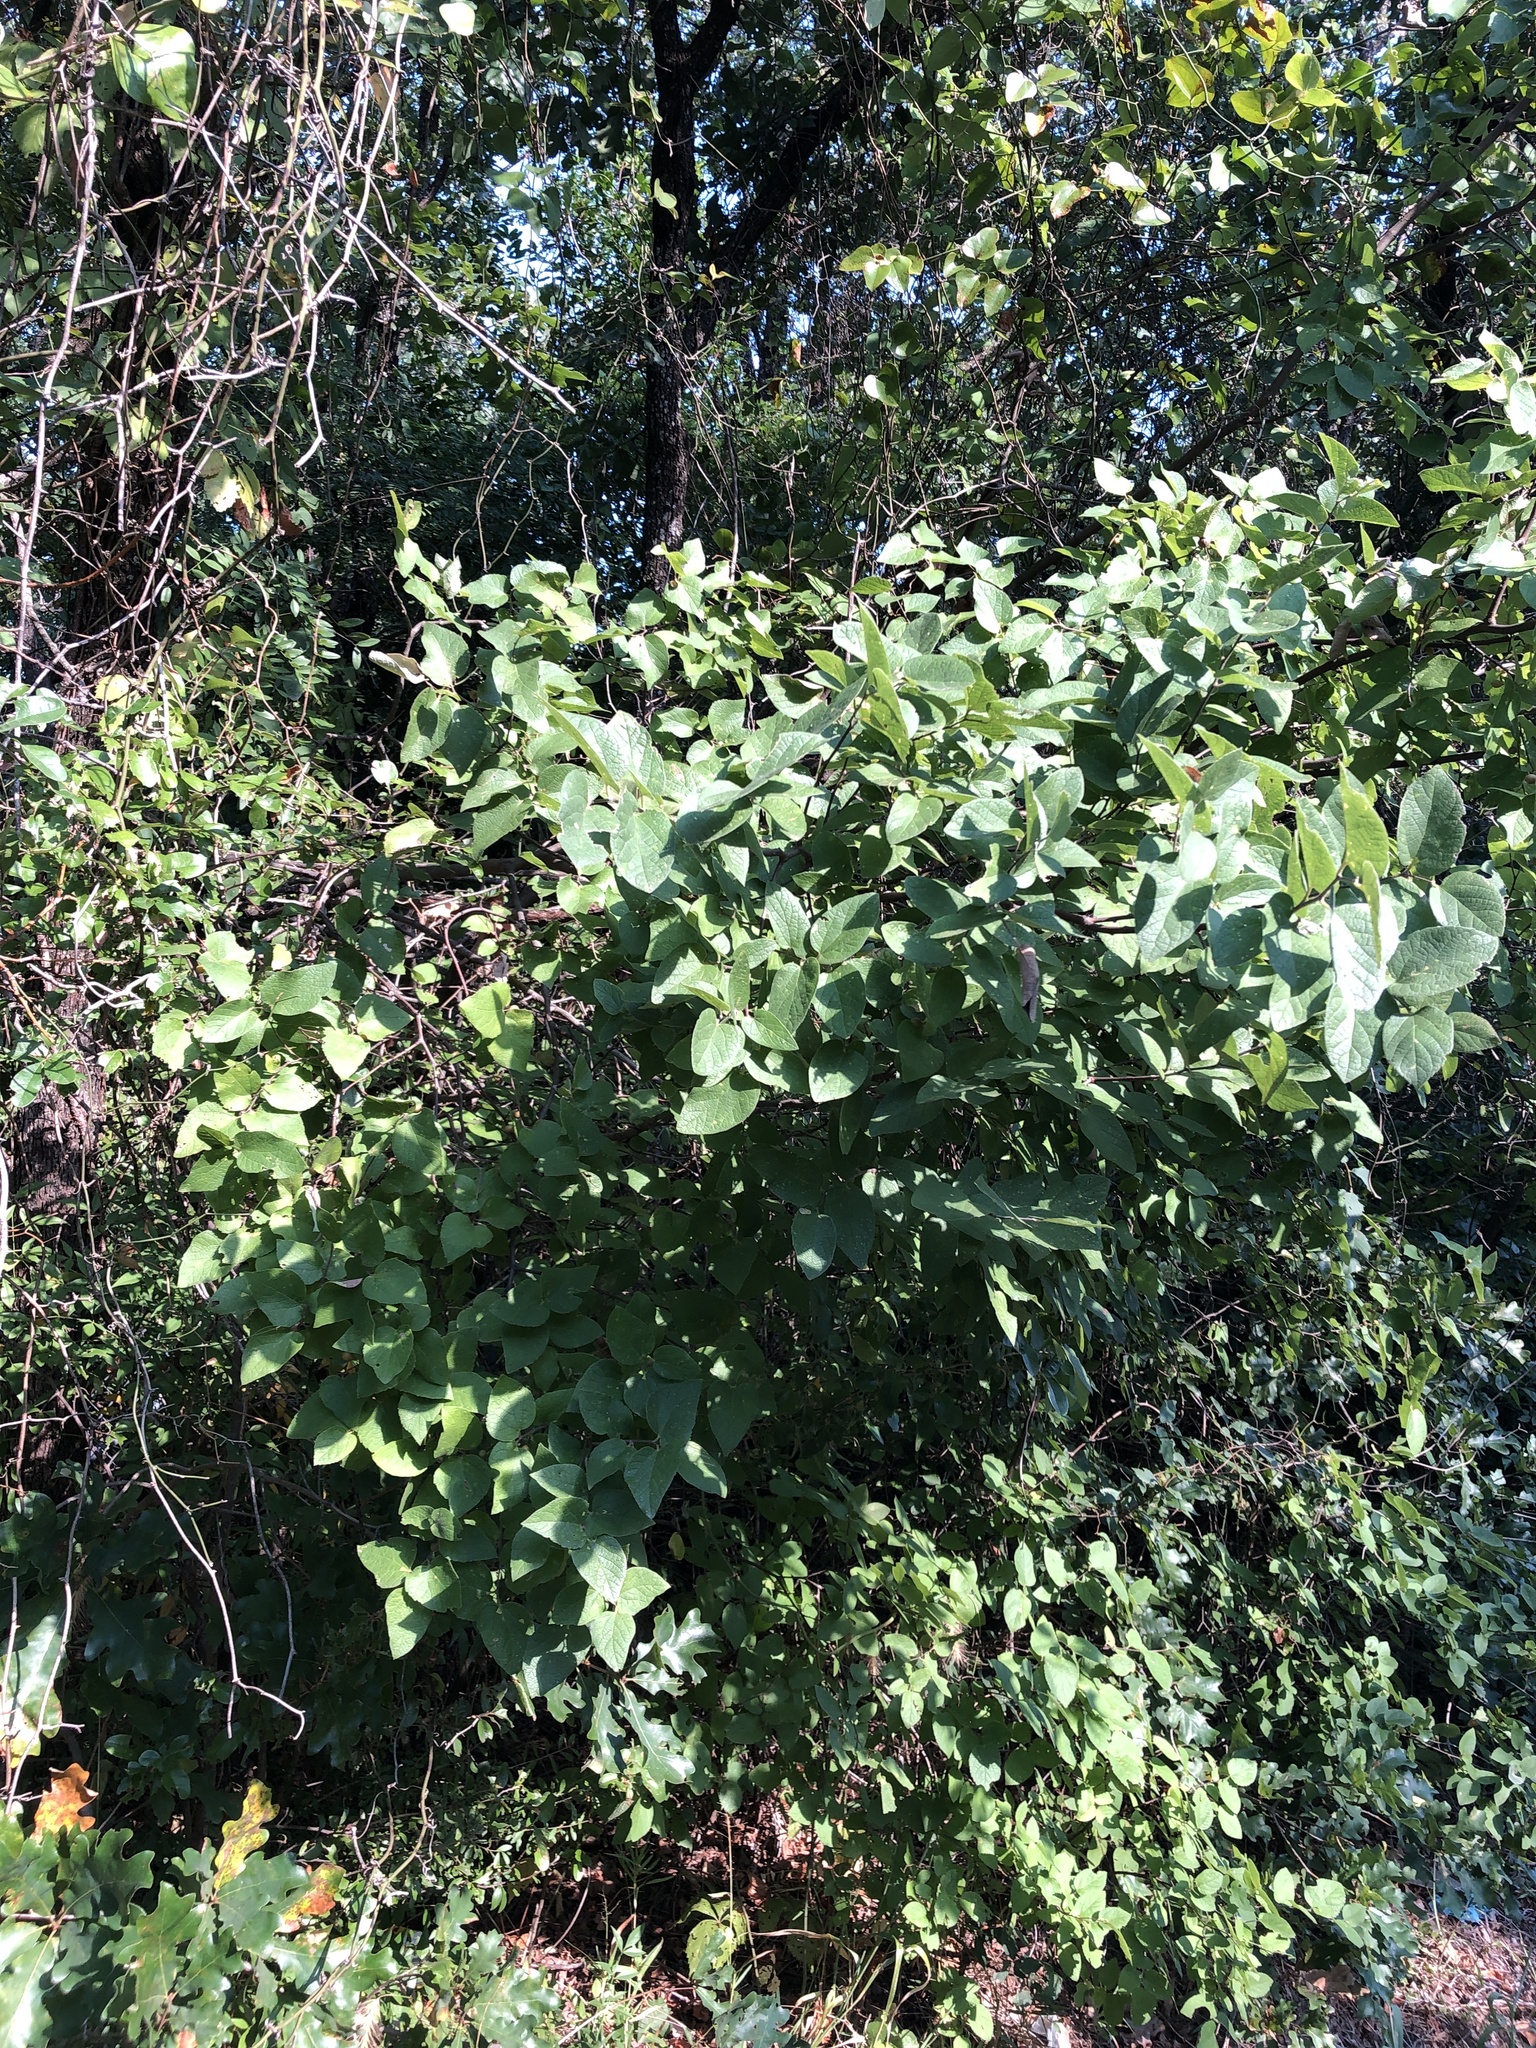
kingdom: Plantae
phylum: Tracheophyta
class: Magnoliopsida
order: Rosales
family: Cannabaceae
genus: Celtis
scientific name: Celtis reticulata
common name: Netleaf hackberry
